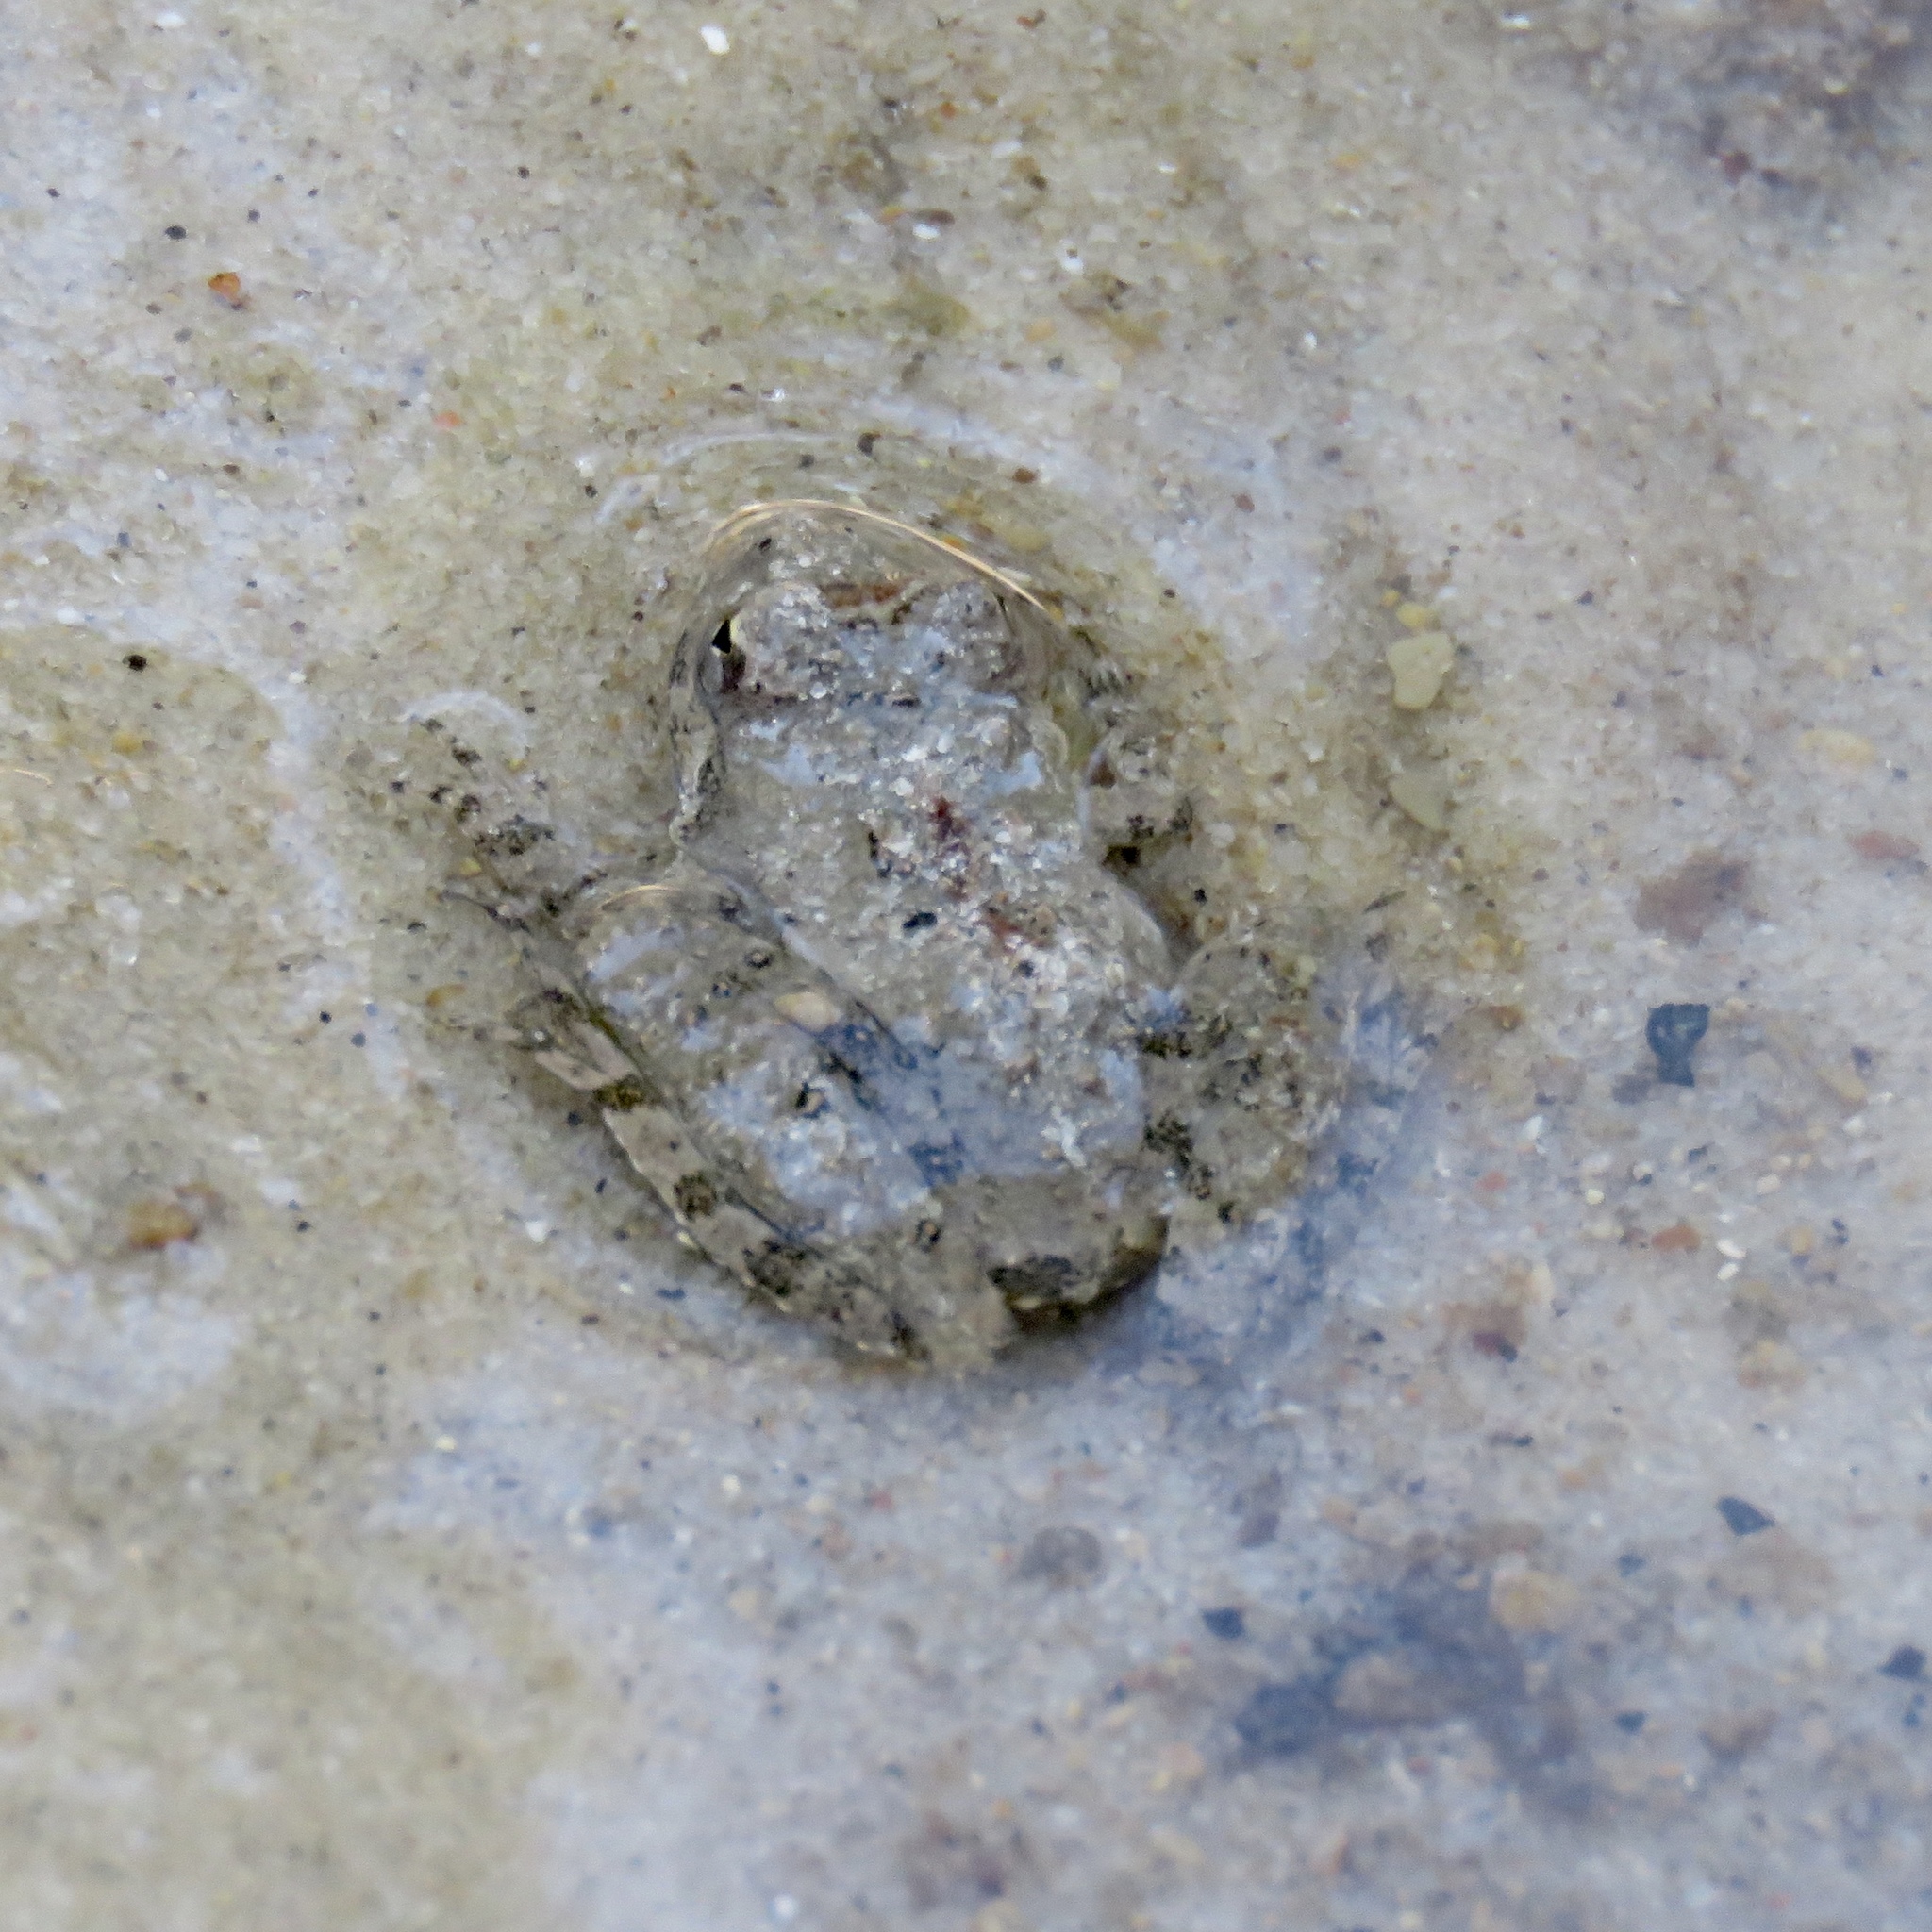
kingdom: Animalia
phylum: Chordata
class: Amphibia
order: Anura
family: Hylidae
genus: Acris
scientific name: Acris blanchardi
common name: Blanchard's cricket frog
